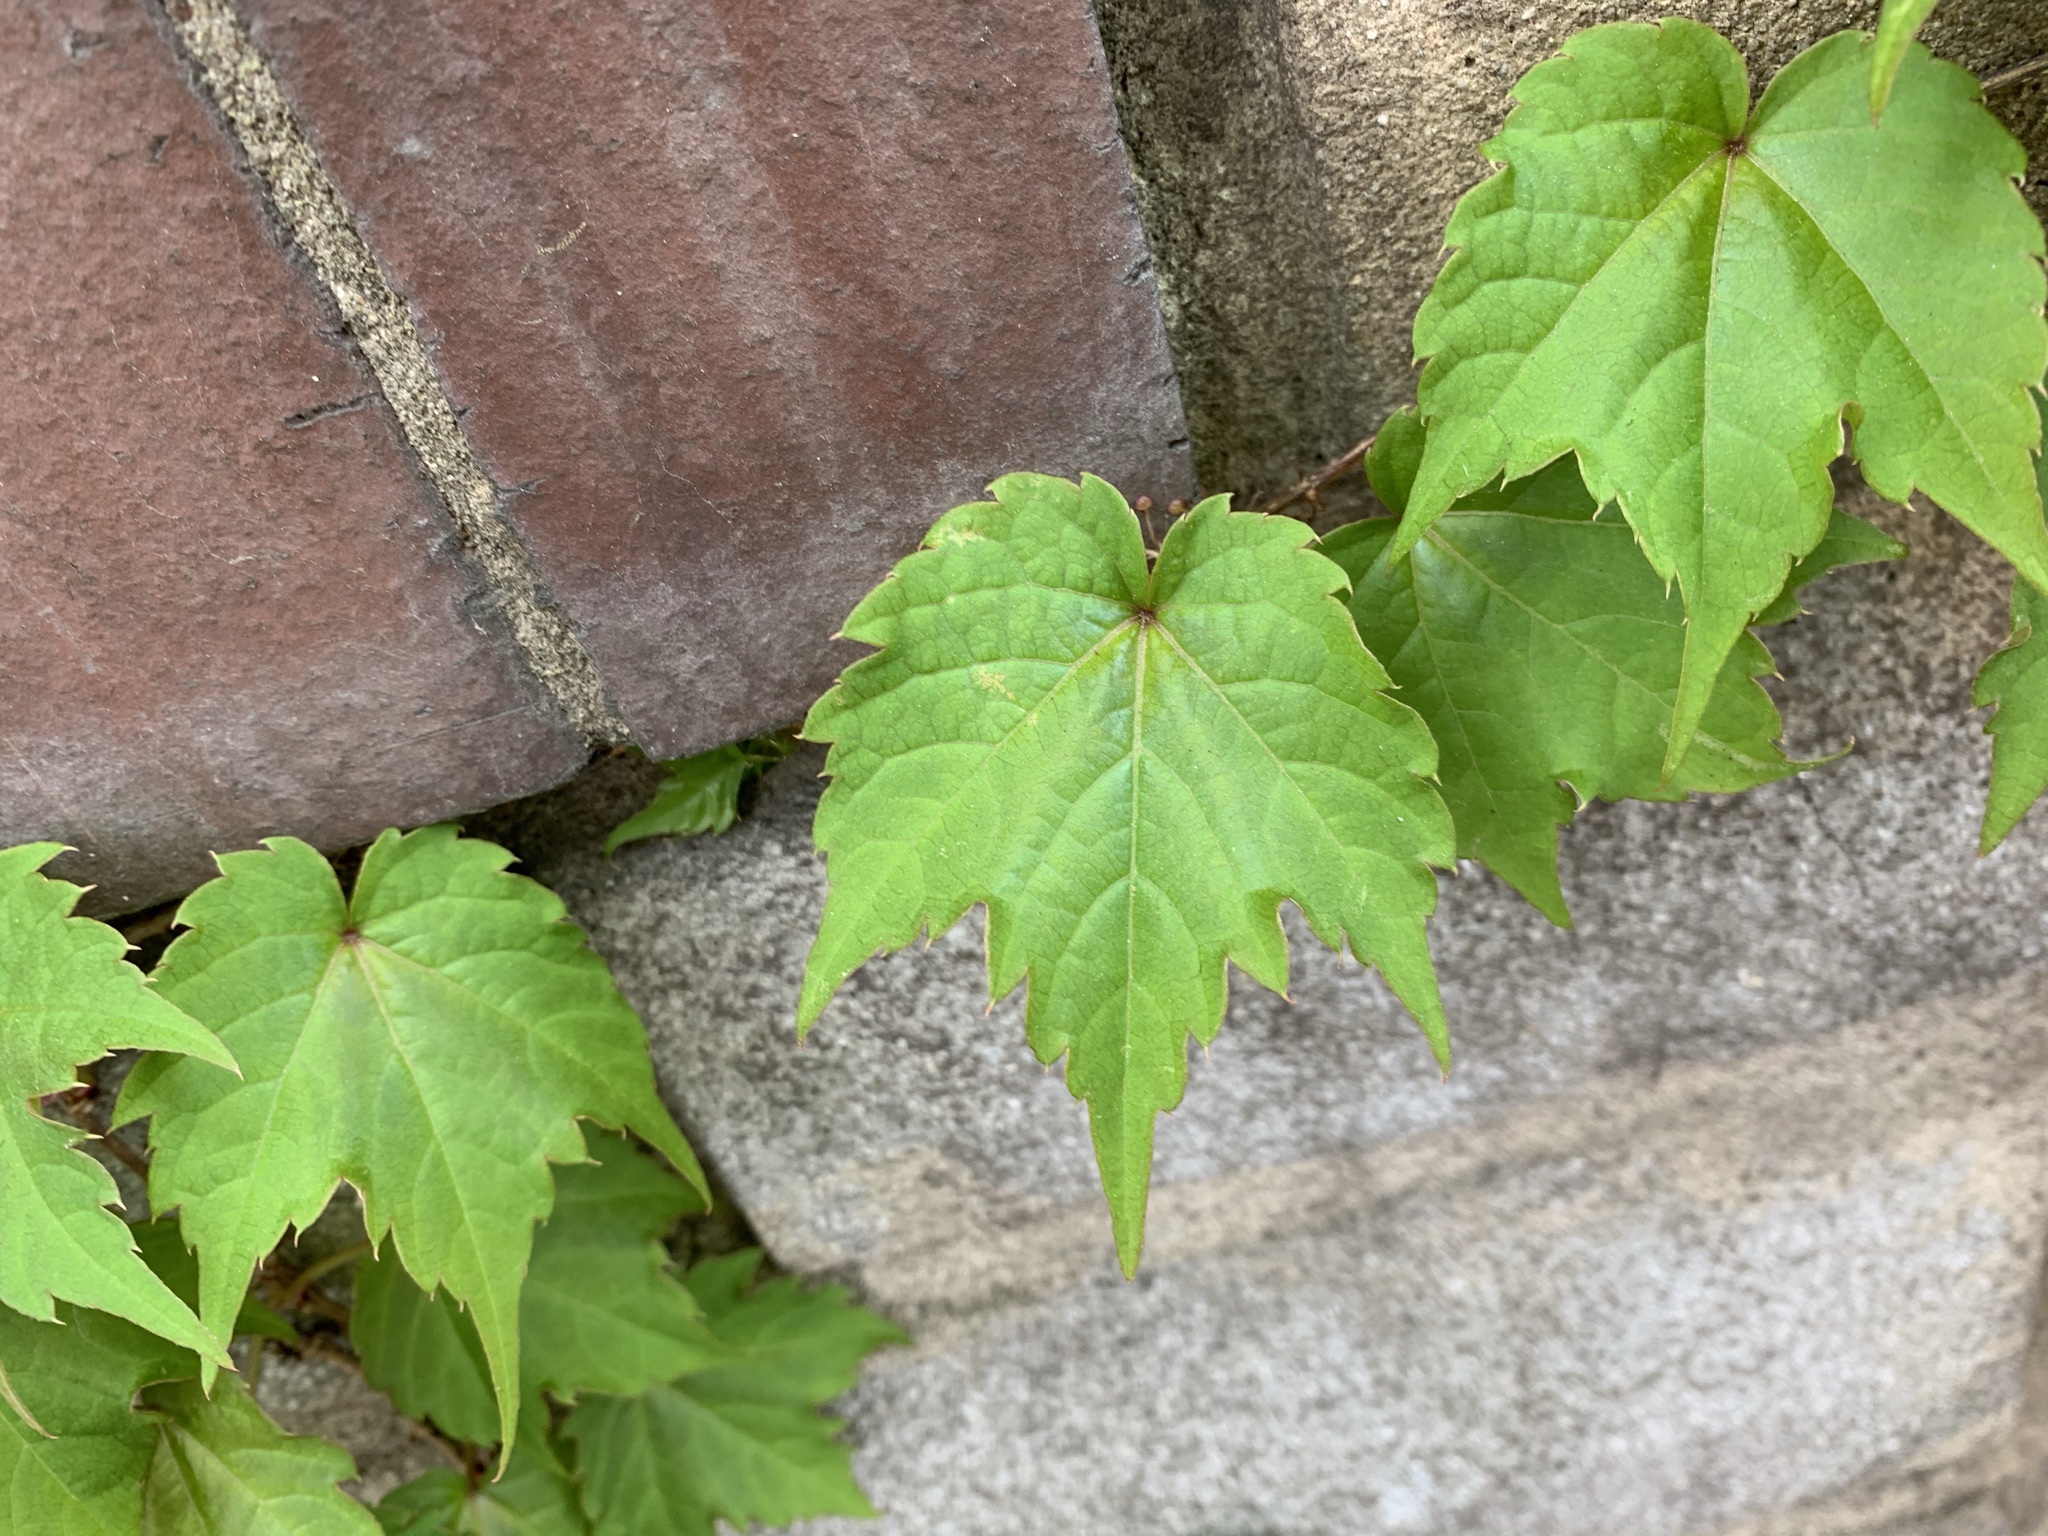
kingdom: Plantae
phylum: Tracheophyta
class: Magnoliopsida
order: Vitales
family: Vitaceae
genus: Parthenocissus
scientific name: Parthenocissus tricuspidata
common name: Boston ivy
